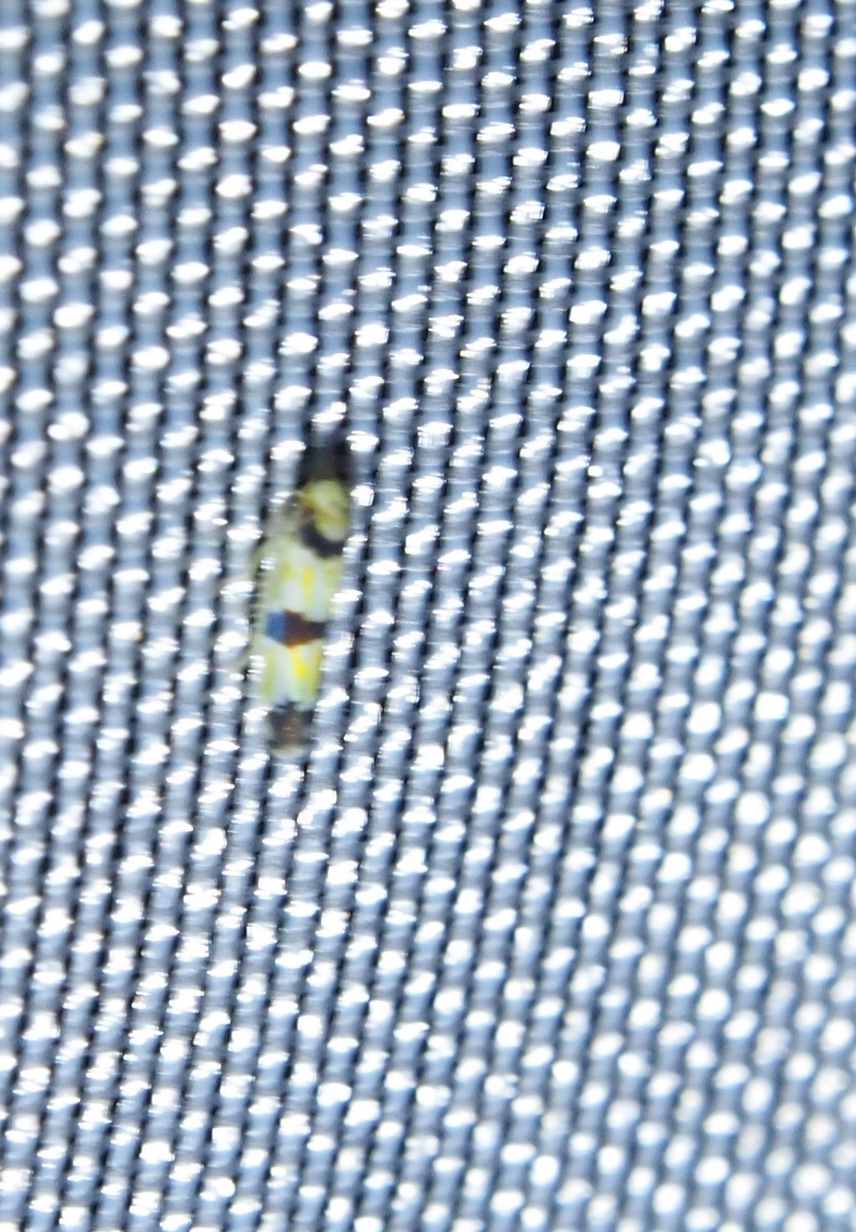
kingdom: Animalia
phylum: Arthropoda
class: Insecta
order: Hemiptera
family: Cicadellidae
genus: Erythroneura
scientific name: Erythroneura calycula
